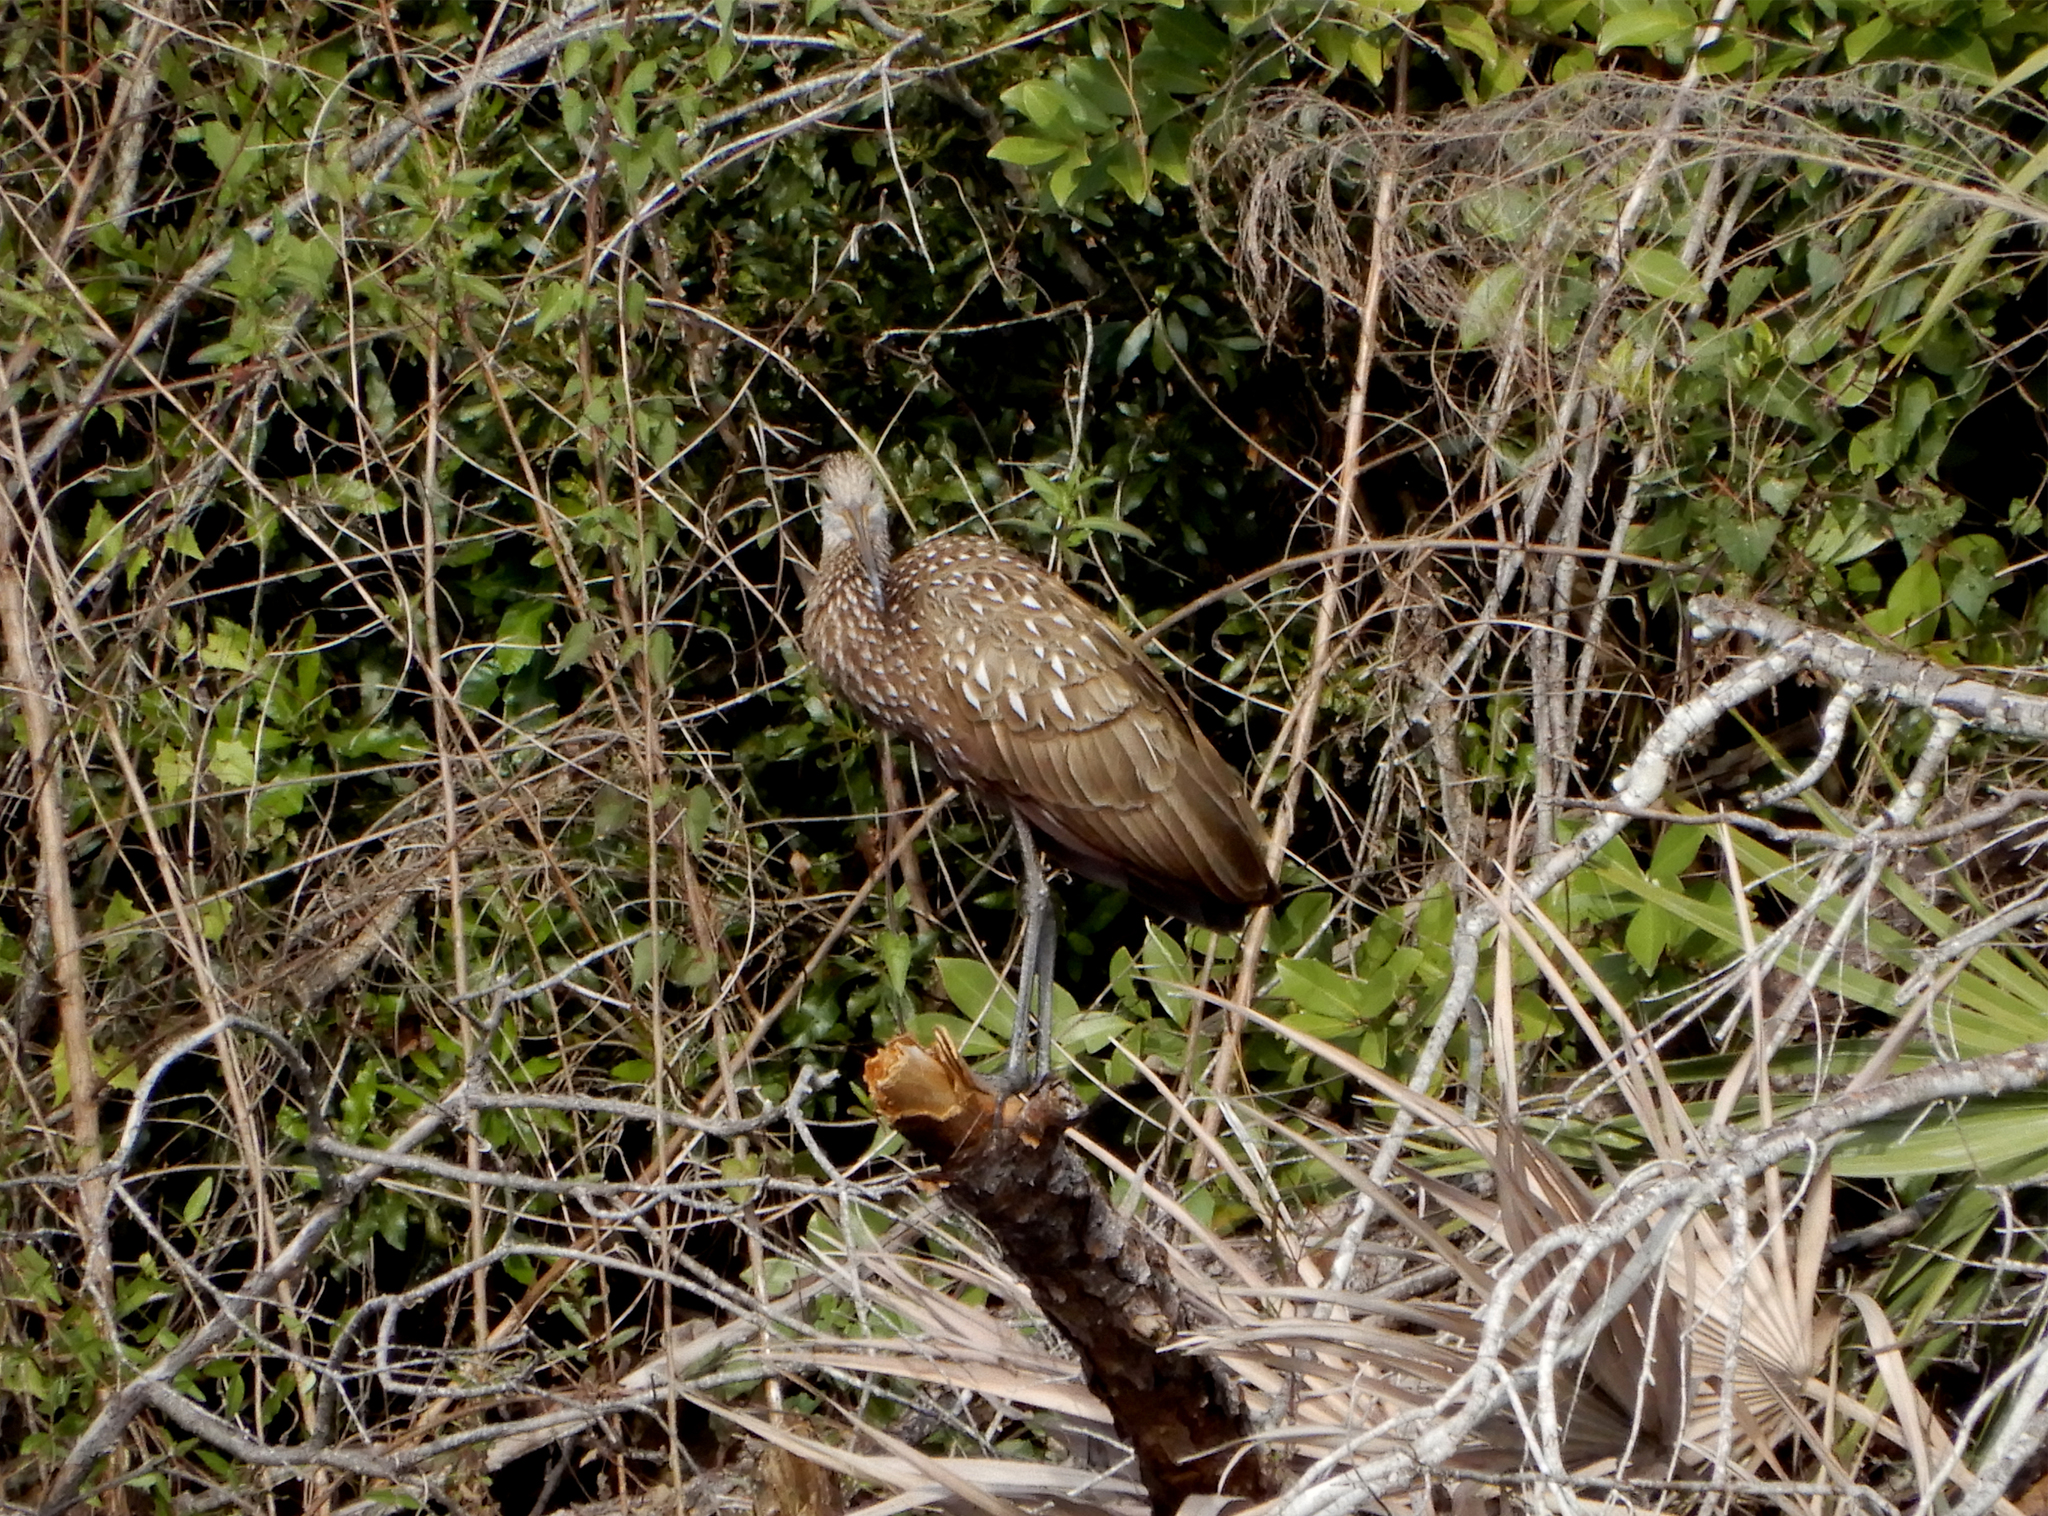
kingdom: Animalia
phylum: Chordata
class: Aves
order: Gruiformes
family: Aramidae
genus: Aramus
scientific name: Aramus guarauna
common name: Limpkin
